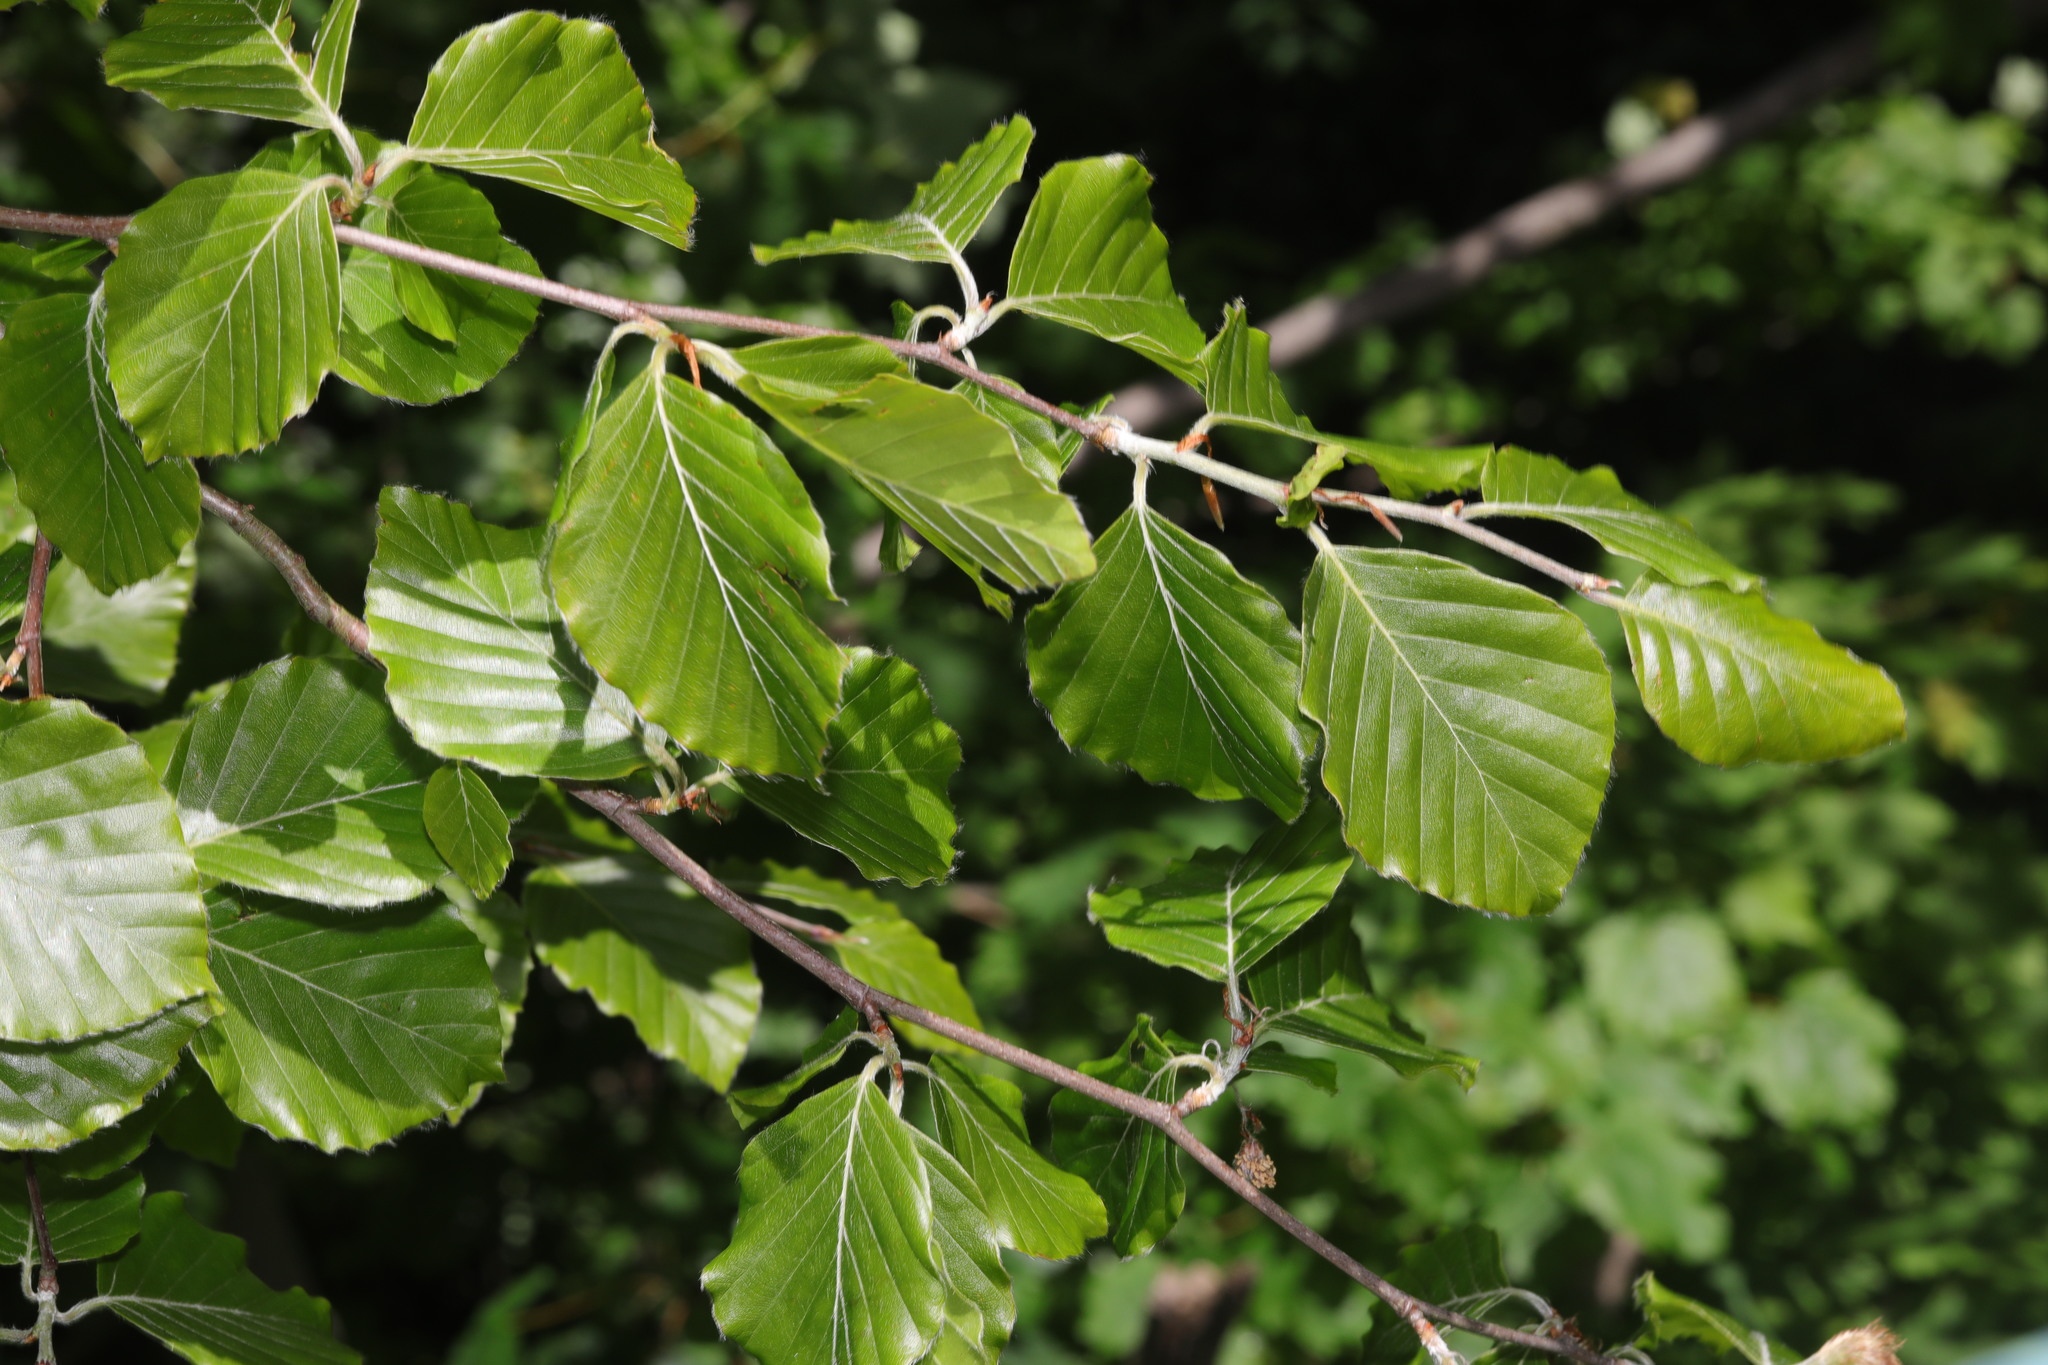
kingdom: Plantae
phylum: Tracheophyta
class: Magnoliopsida
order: Fagales
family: Fagaceae
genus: Fagus
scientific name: Fagus sylvatica
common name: Beech
